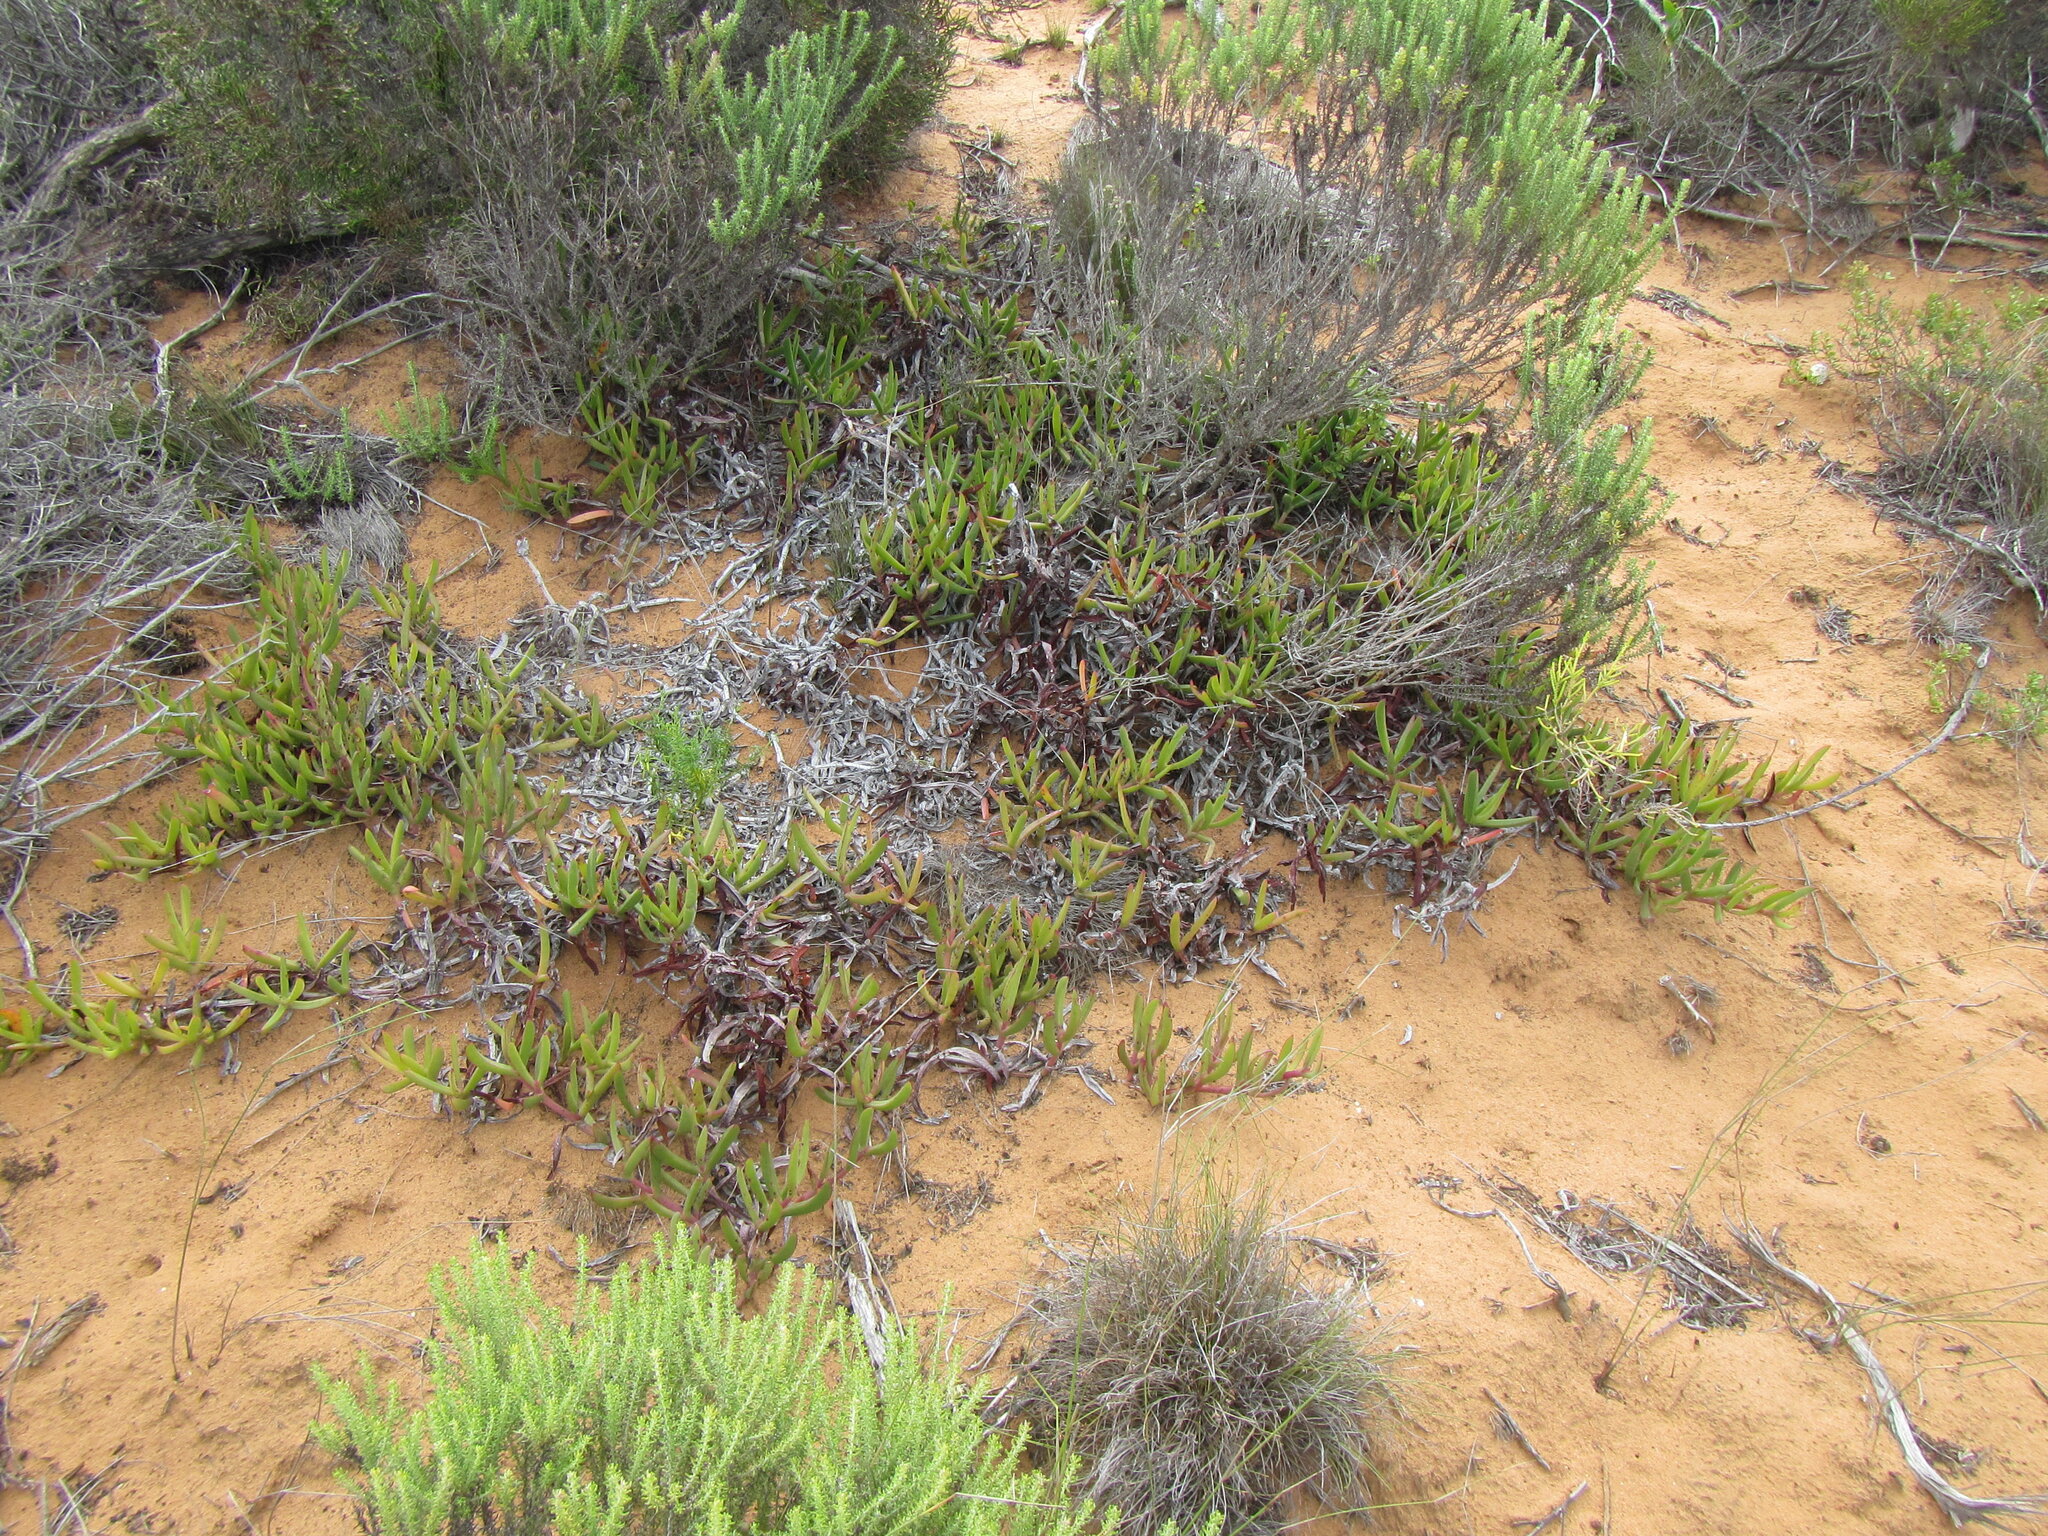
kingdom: Plantae
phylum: Tracheophyta
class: Magnoliopsida
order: Caryophyllales
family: Aizoaceae
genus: Carpobrotus
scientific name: Carpobrotus muirii
